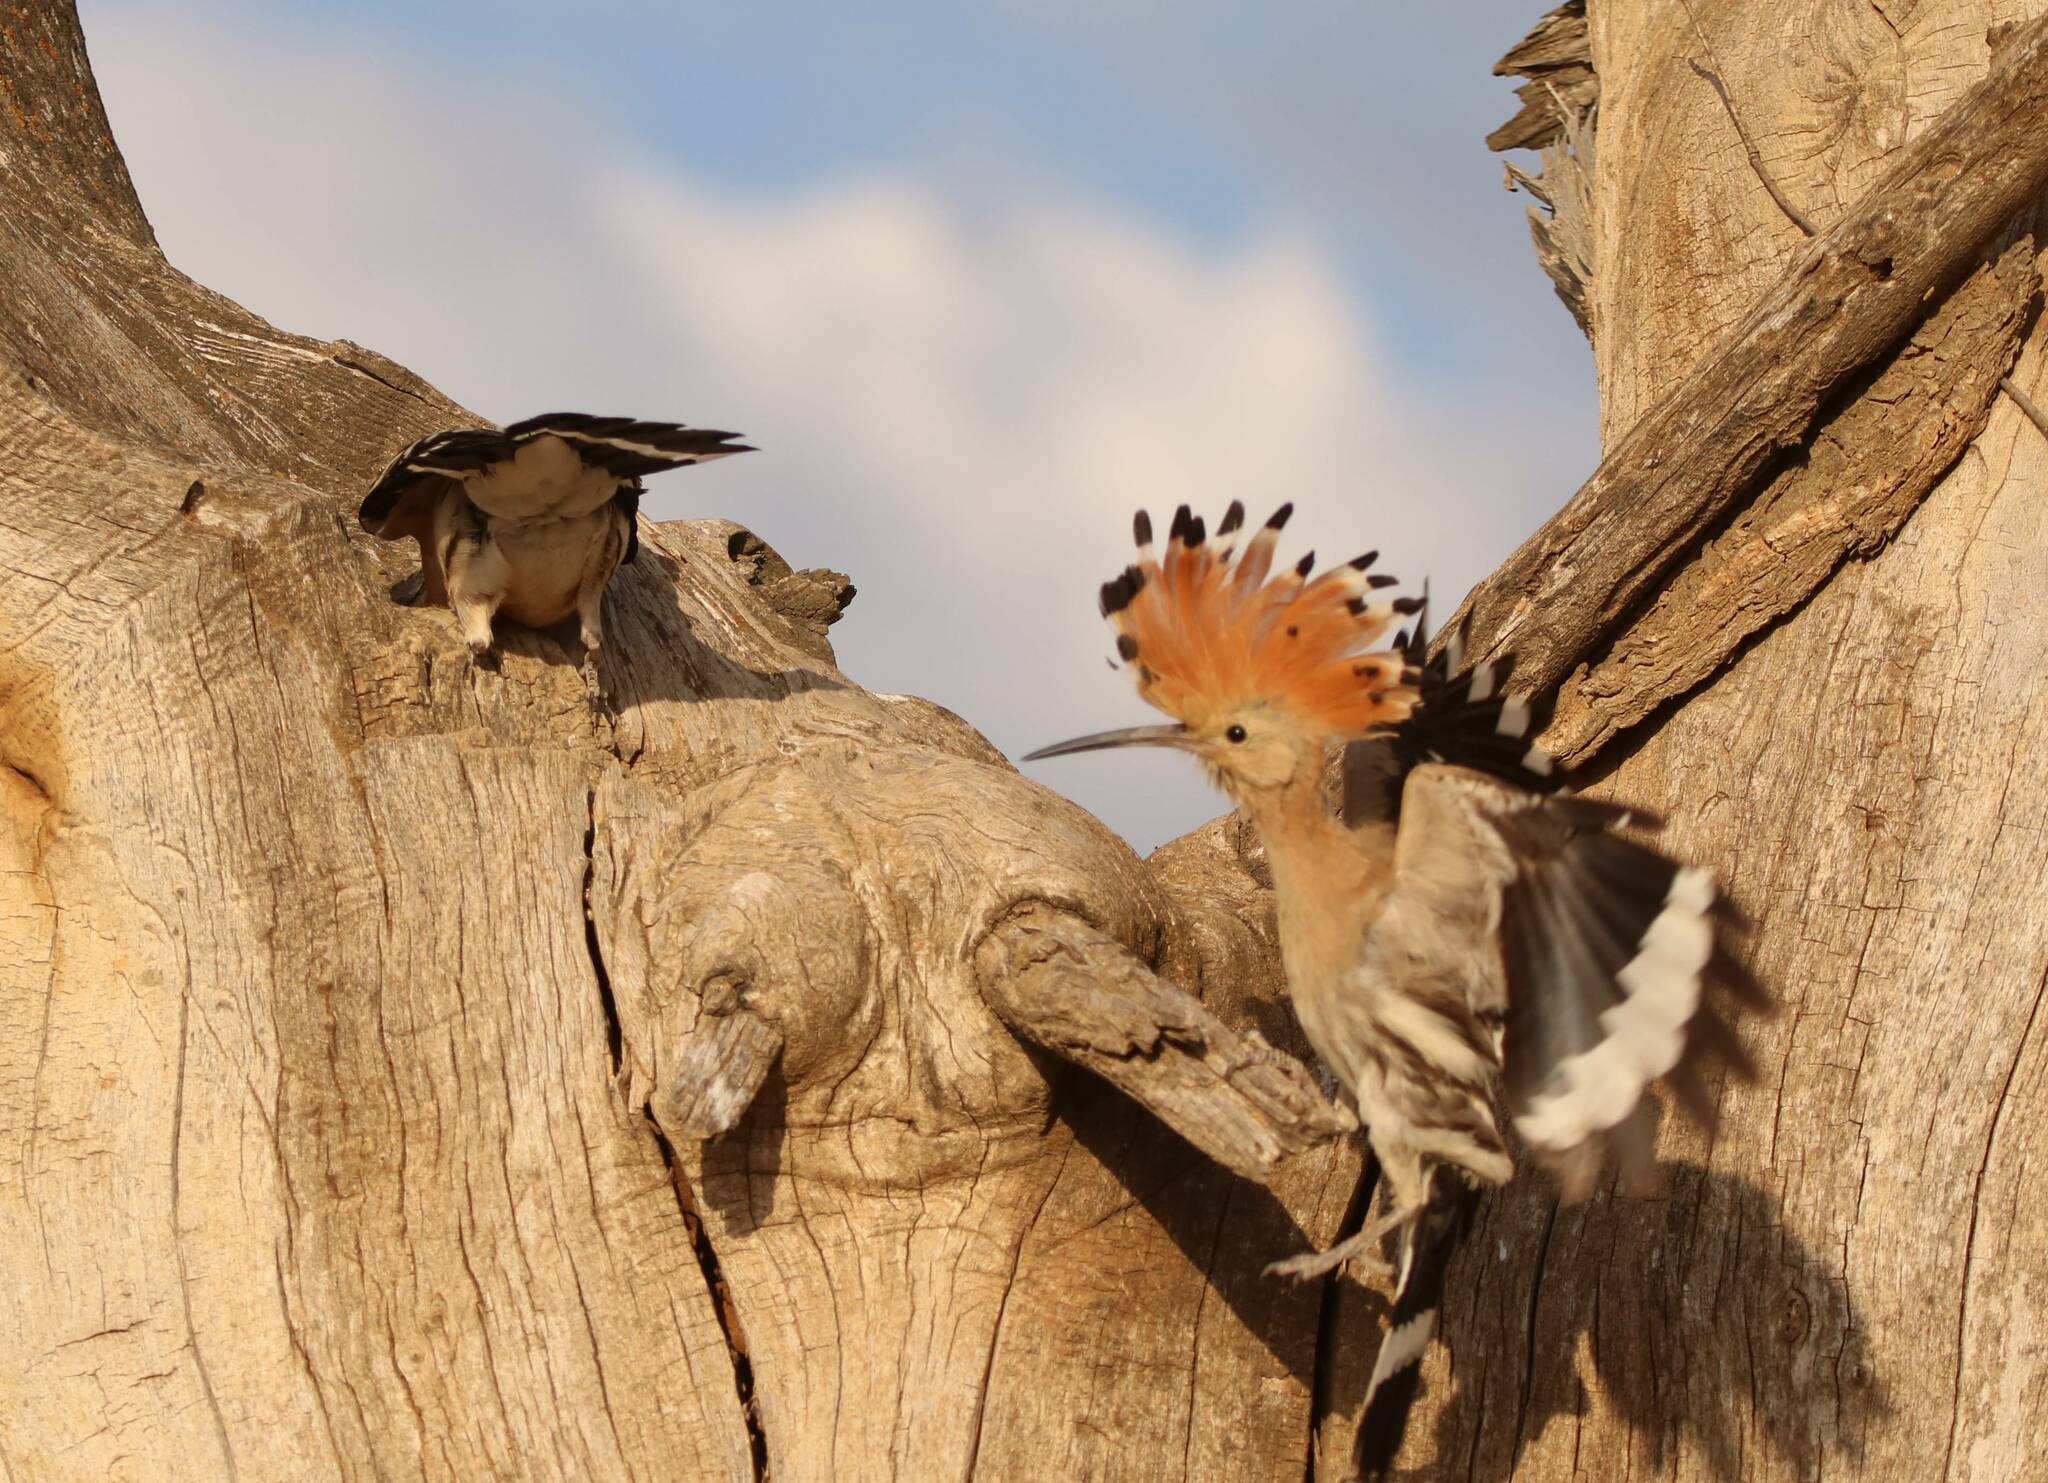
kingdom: Animalia
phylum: Chordata
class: Aves
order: Bucerotiformes
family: Upupidae
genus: Upupa
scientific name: Upupa epops
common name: Eurasian hoopoe
